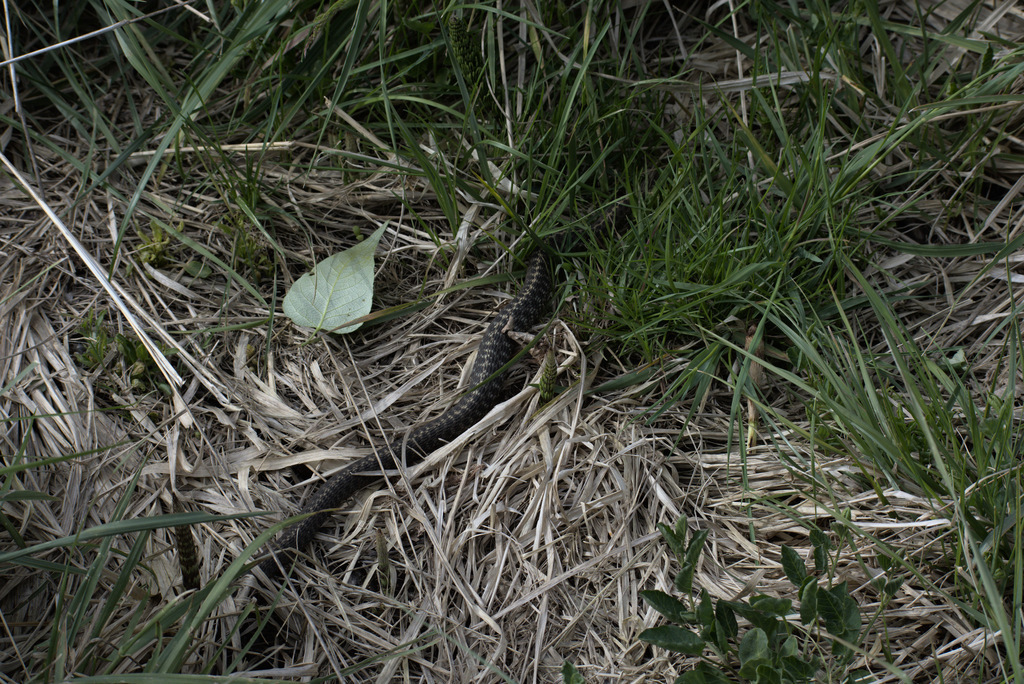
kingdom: Animalia
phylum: Chordata
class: Squamata
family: Colubridae
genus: Thamnophis
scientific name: Thamnophis elegans
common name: Western terrestrial garter snake
